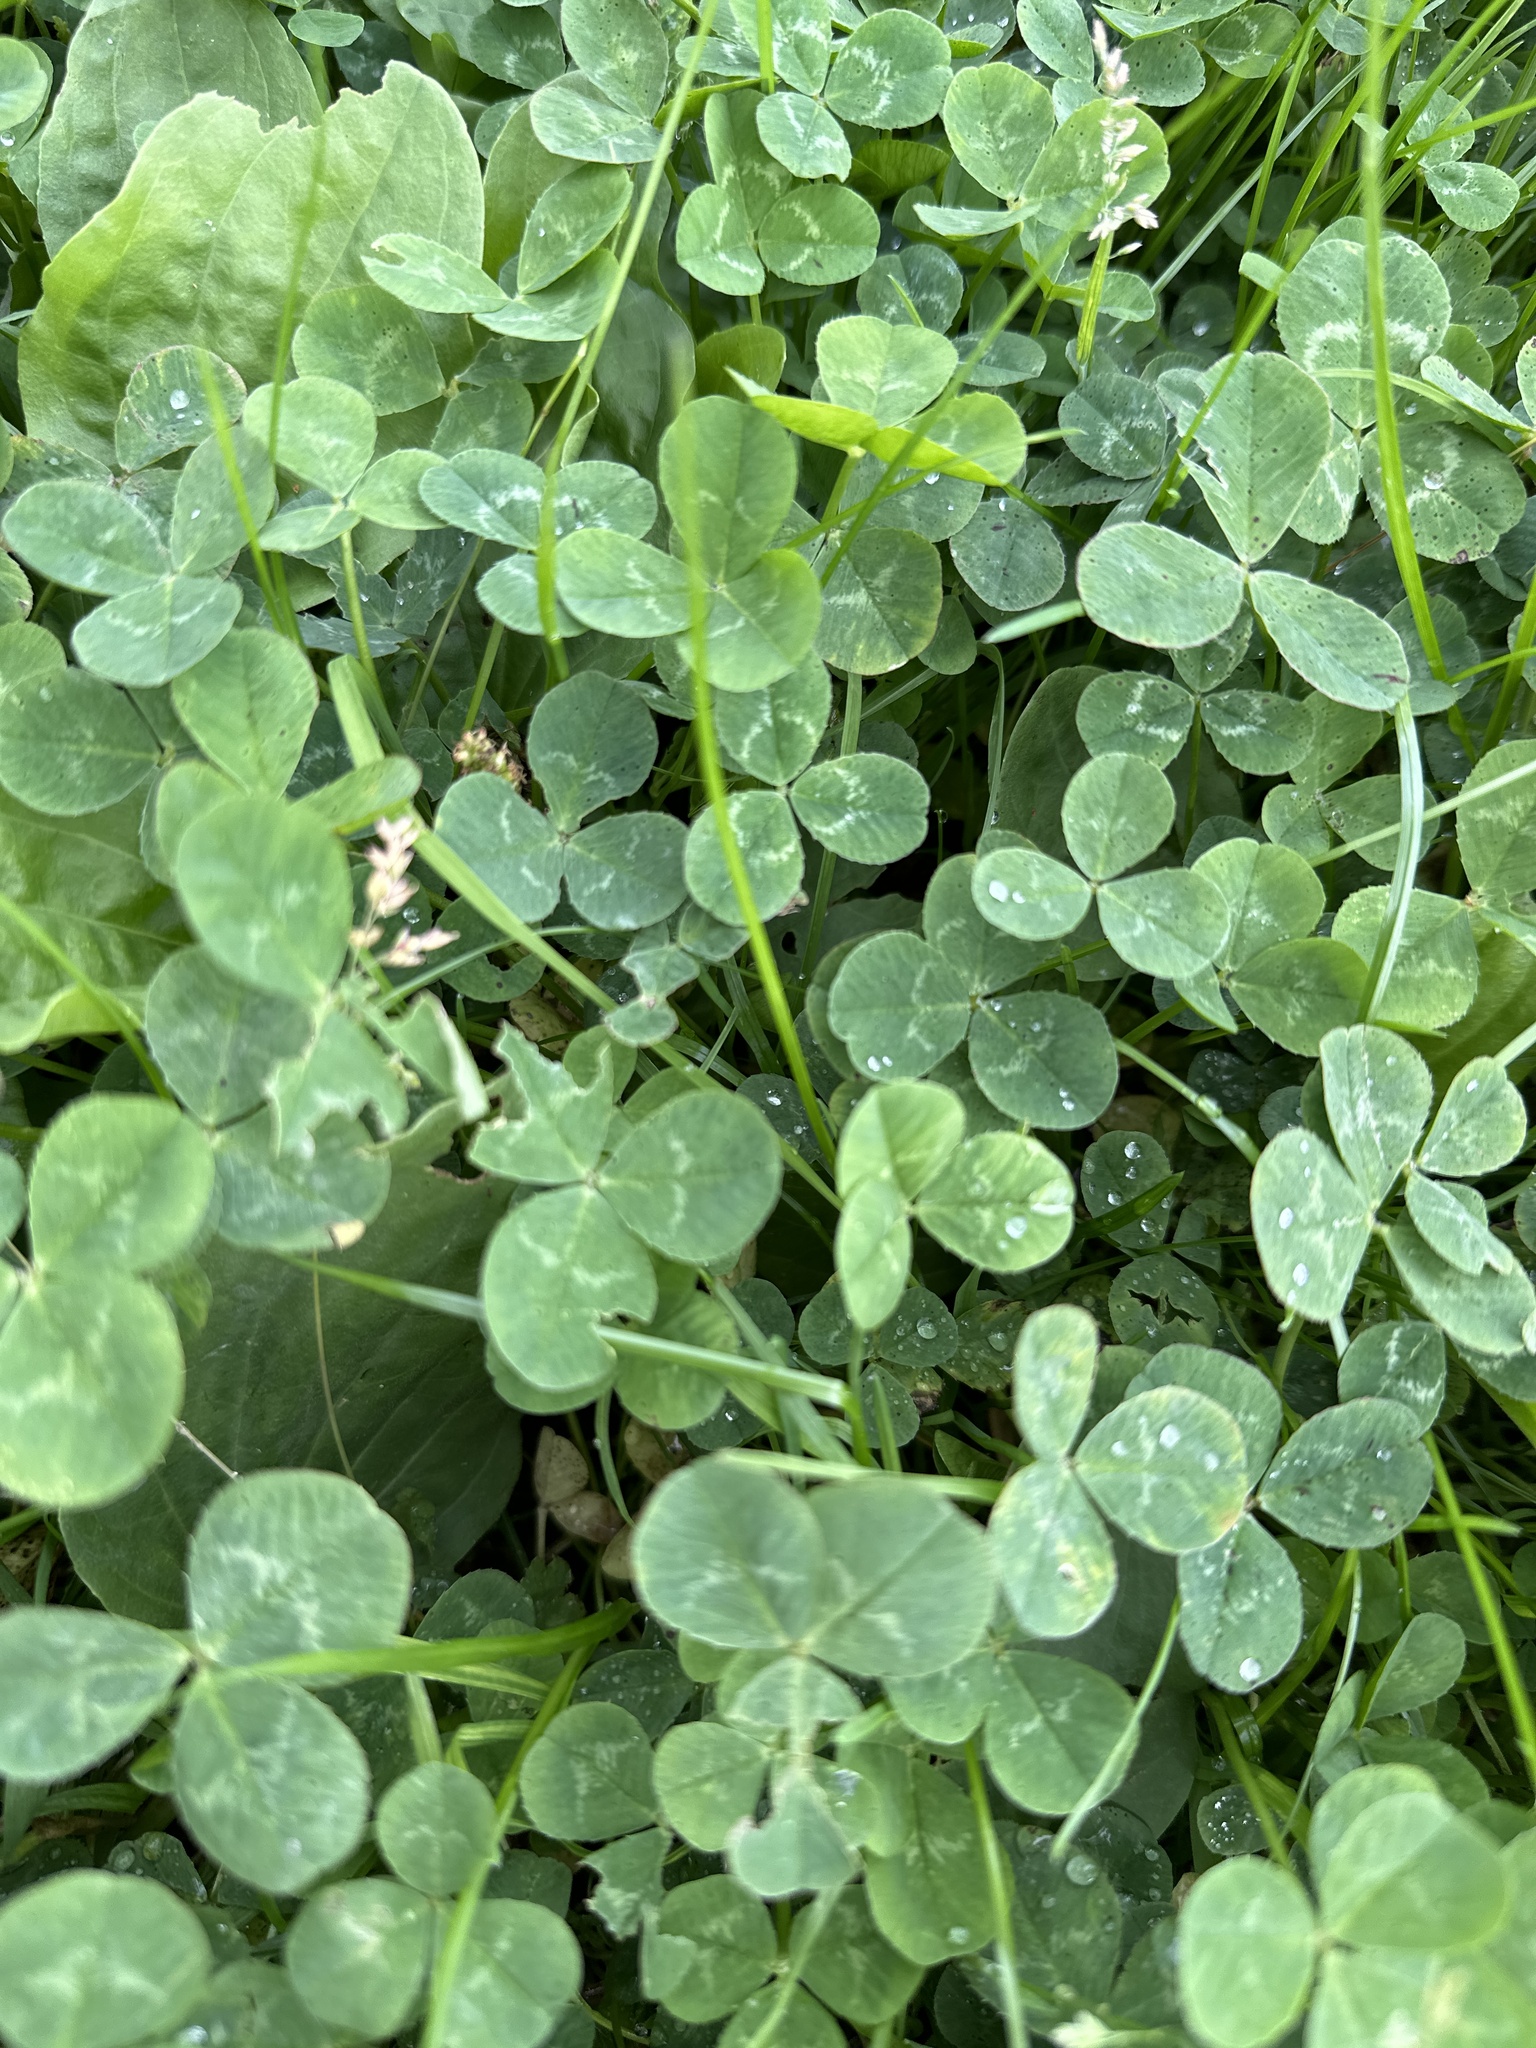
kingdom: Plantae
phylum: Tracheophyta
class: Magnoliopsida
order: Fabales
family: Fabaceae
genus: Trifolium
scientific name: Trifolium repens
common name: White clover
